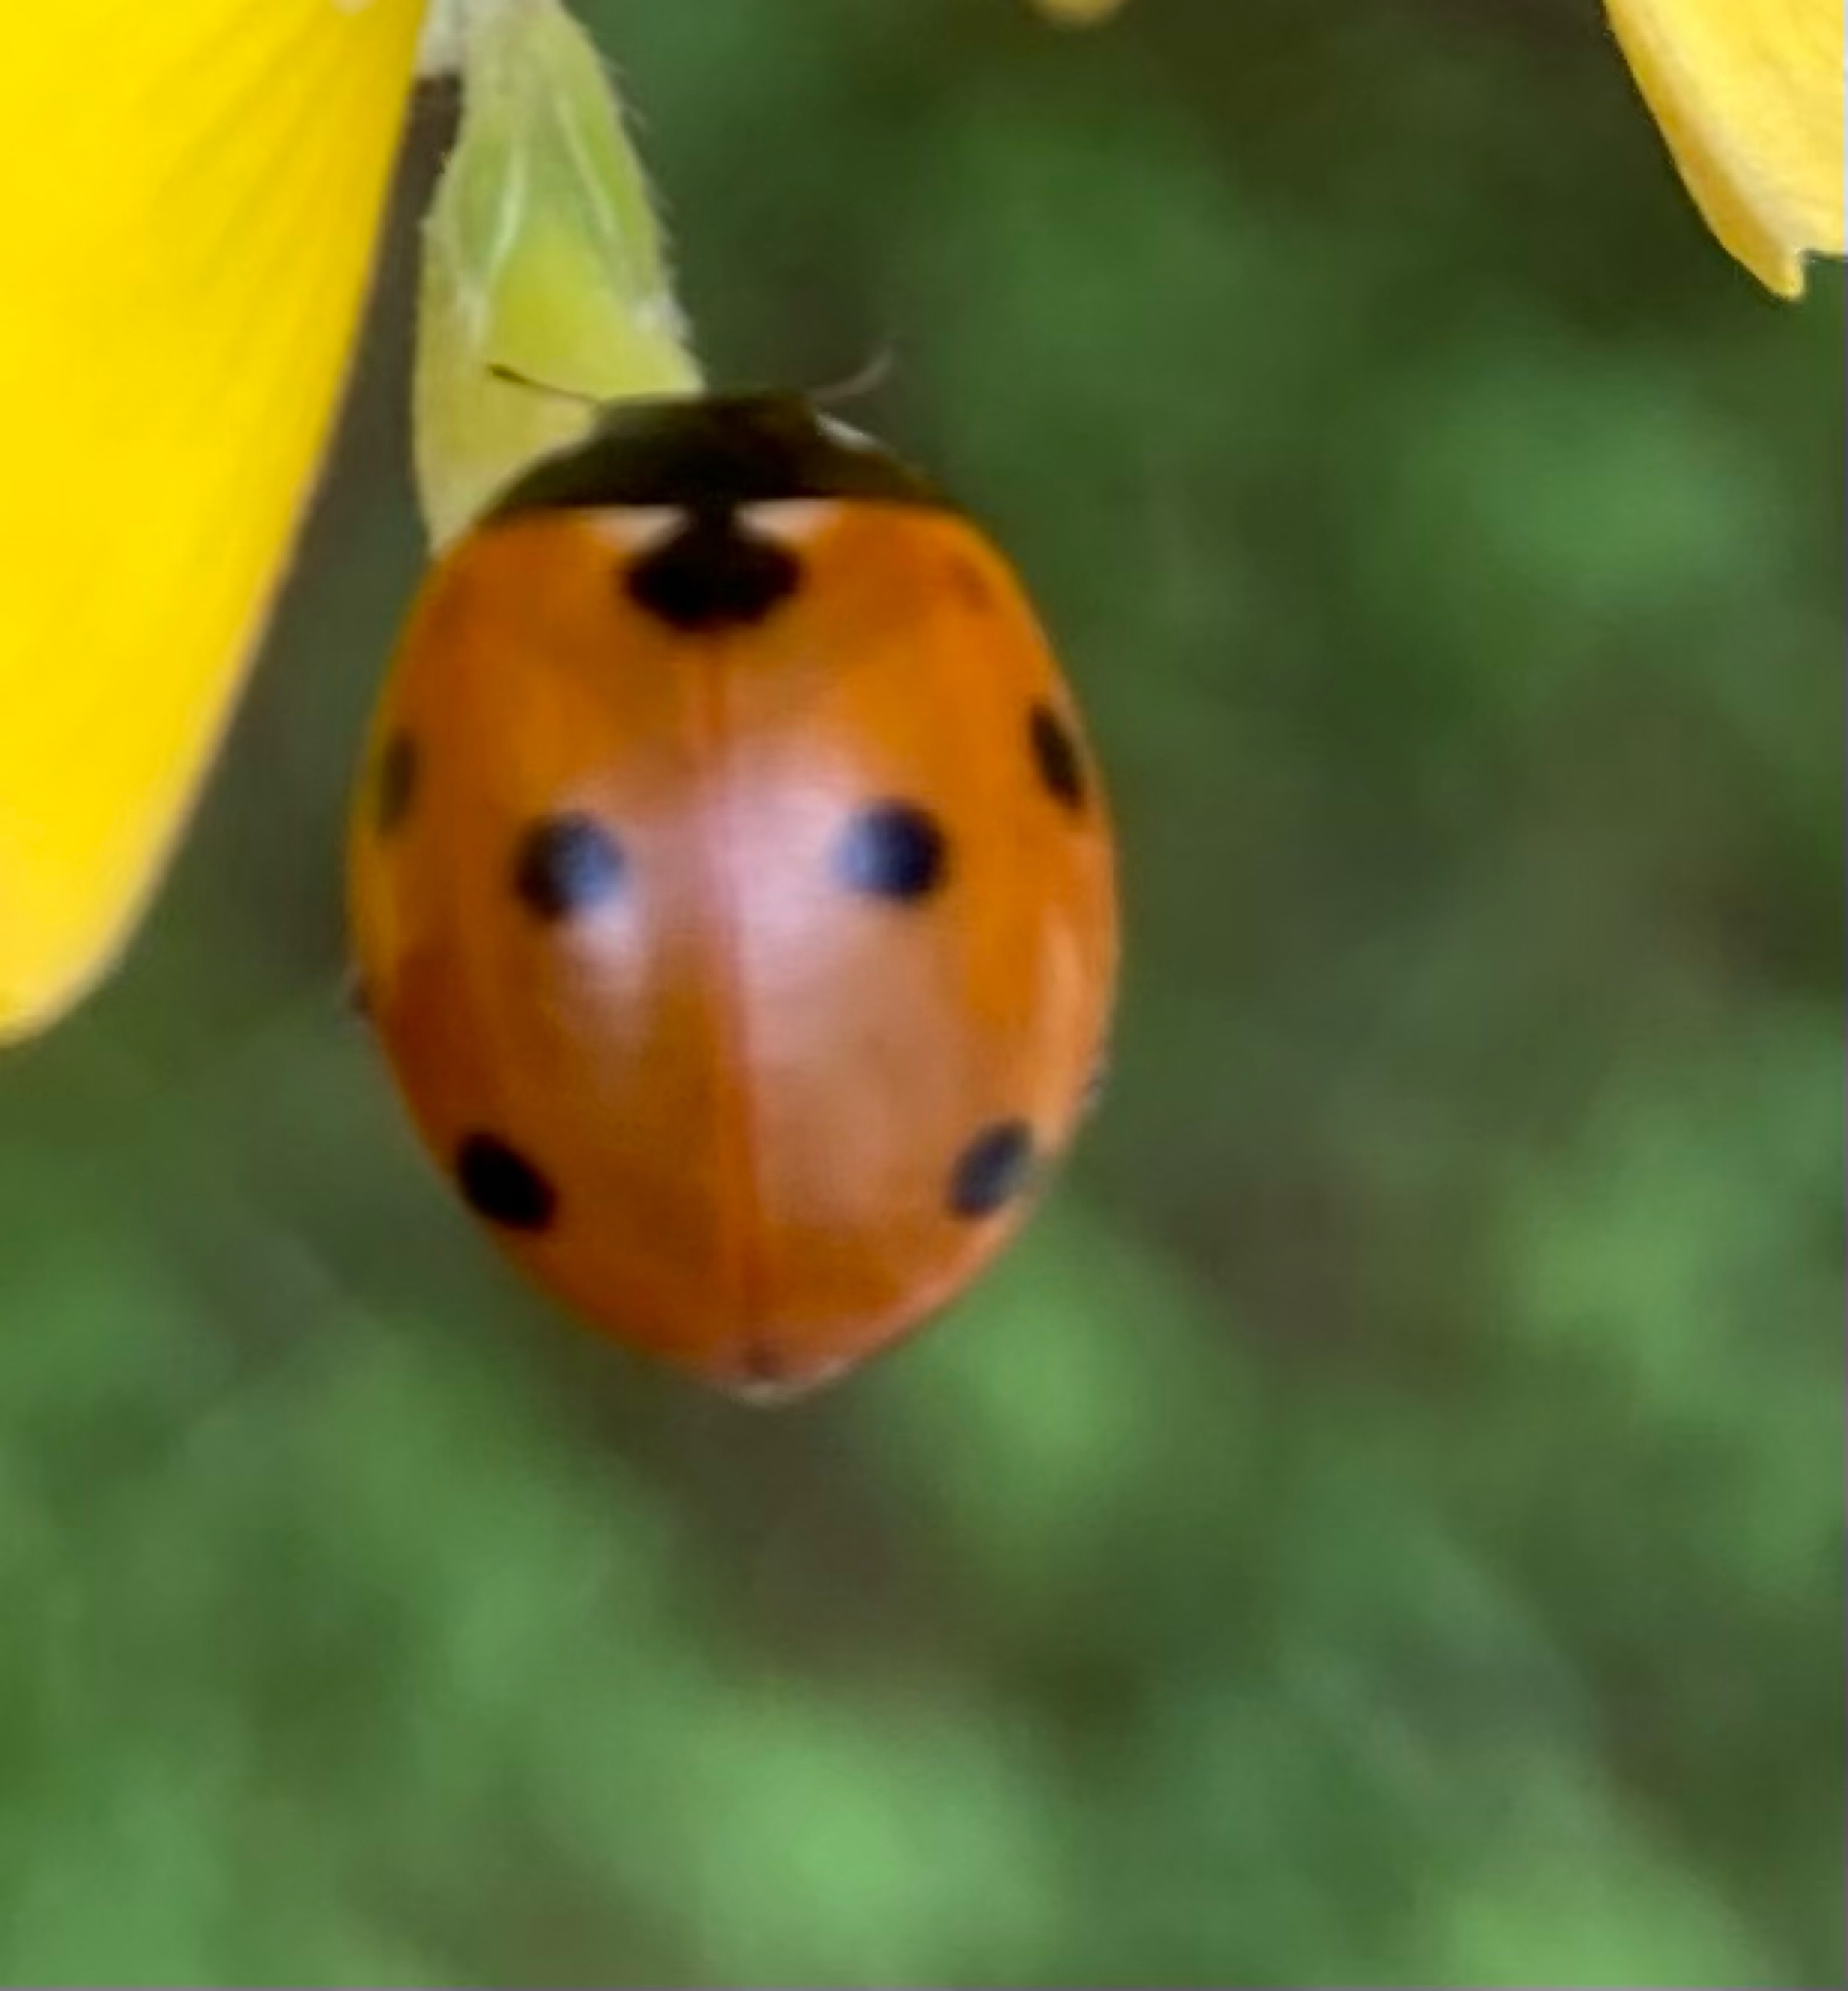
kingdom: Animalia
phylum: Arthropoda
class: Insecta
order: Coleoptera
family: Coccinellidae
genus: Coccinella
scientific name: Coccinella septempunctata
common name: Sevenspotted lady beetle
